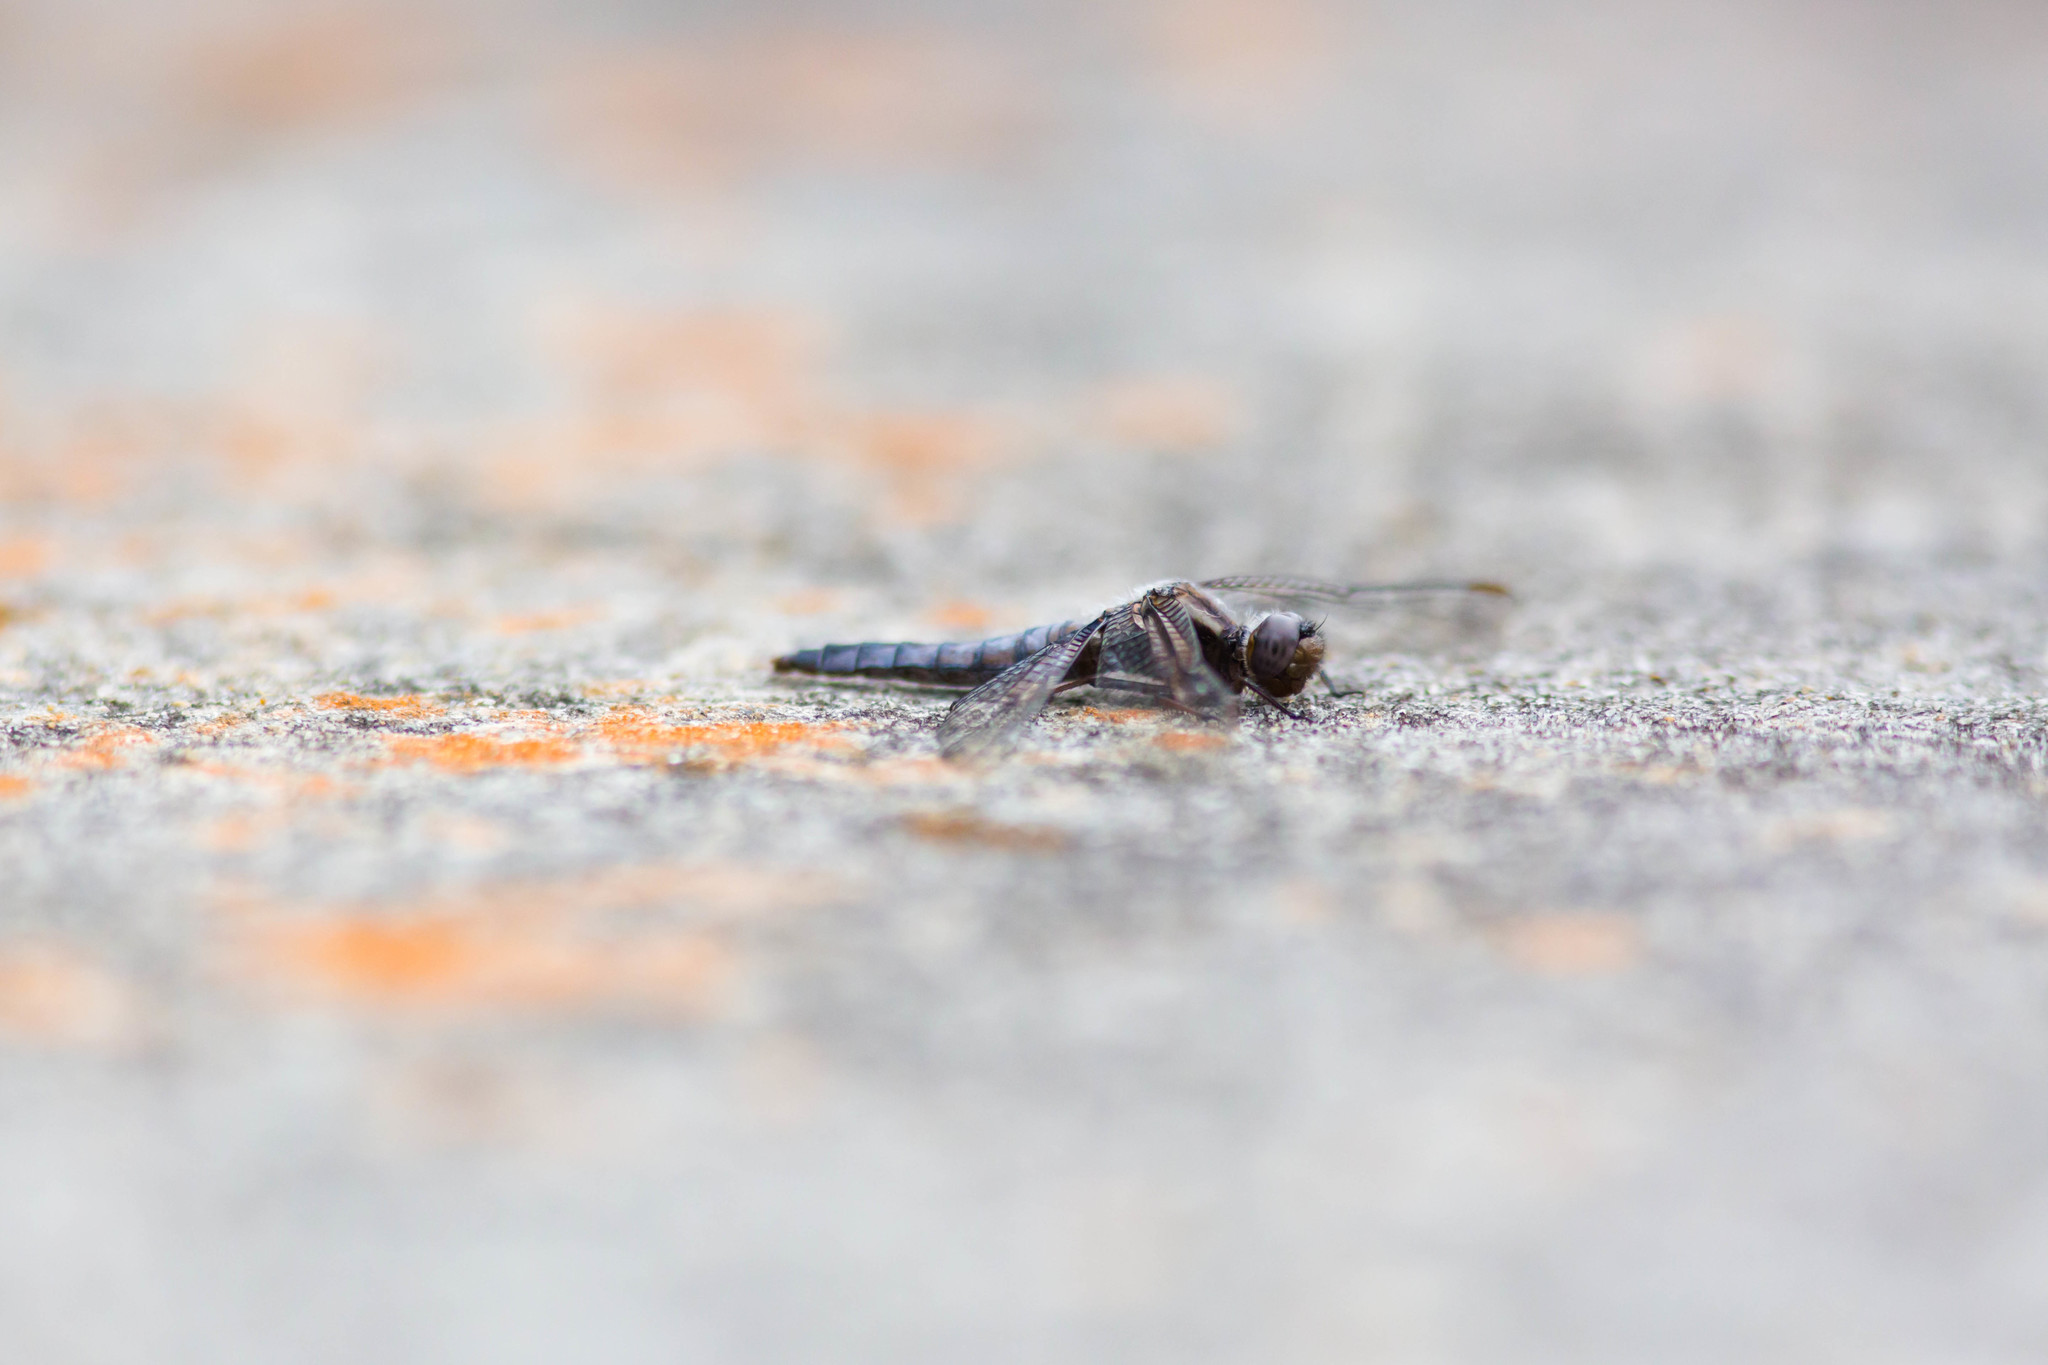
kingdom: Animalia
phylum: Arthropoda
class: Insecta
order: Odonata
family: Libellulidae
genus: Ladona
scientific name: Ladona deplanata
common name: Blue corporal
